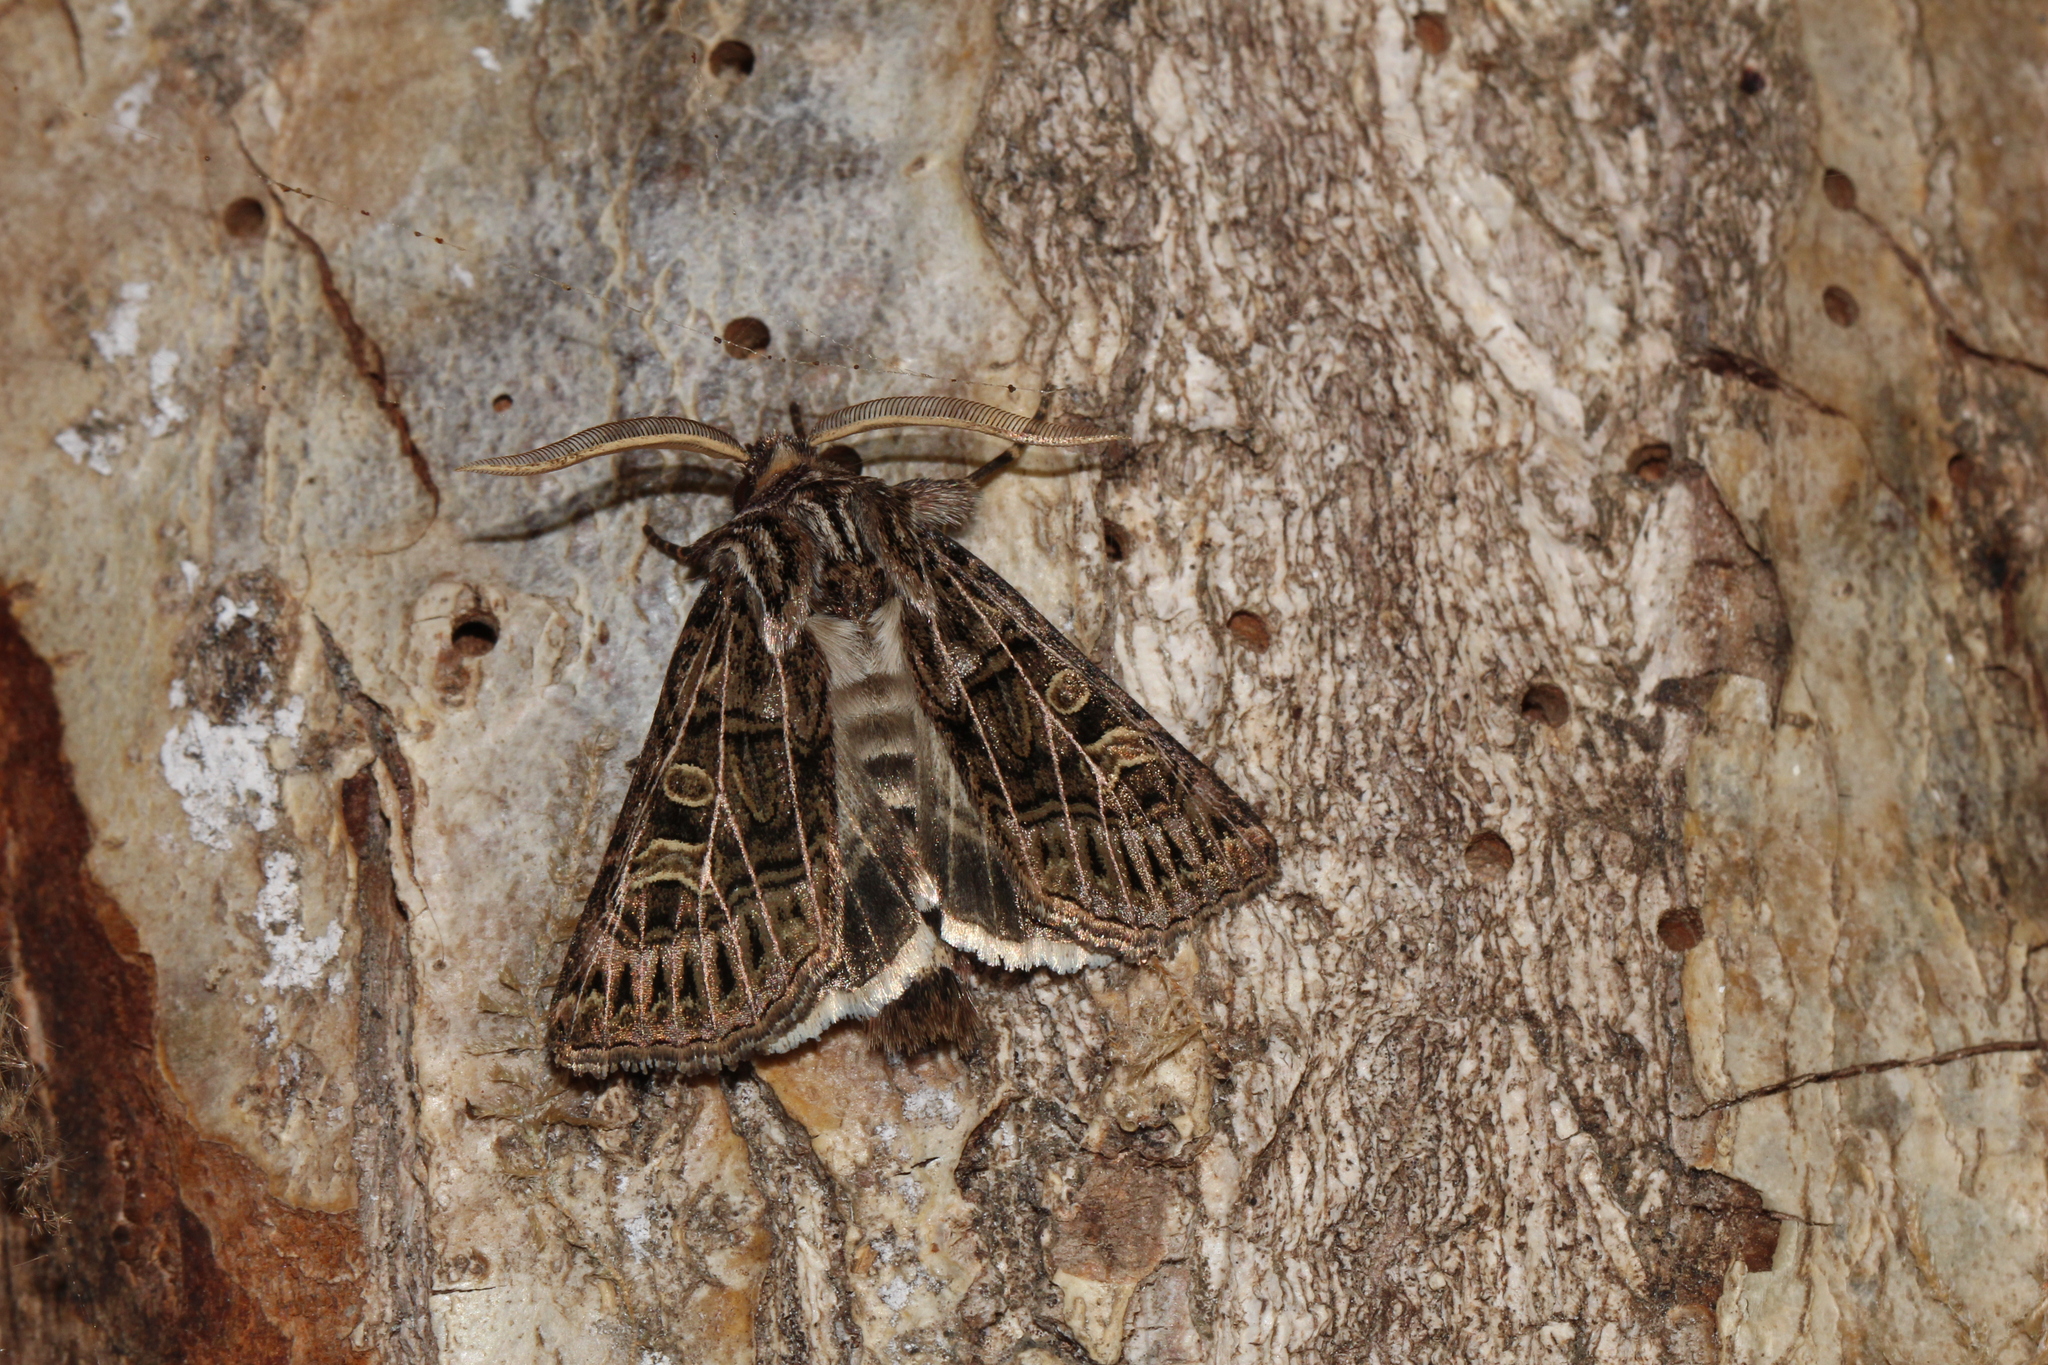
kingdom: Animalia
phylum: Arthropoda
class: Insecta
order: Lepidoptera
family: Noctuidae
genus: Tholera
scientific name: Tholera decimalis
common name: Feathered gothic
